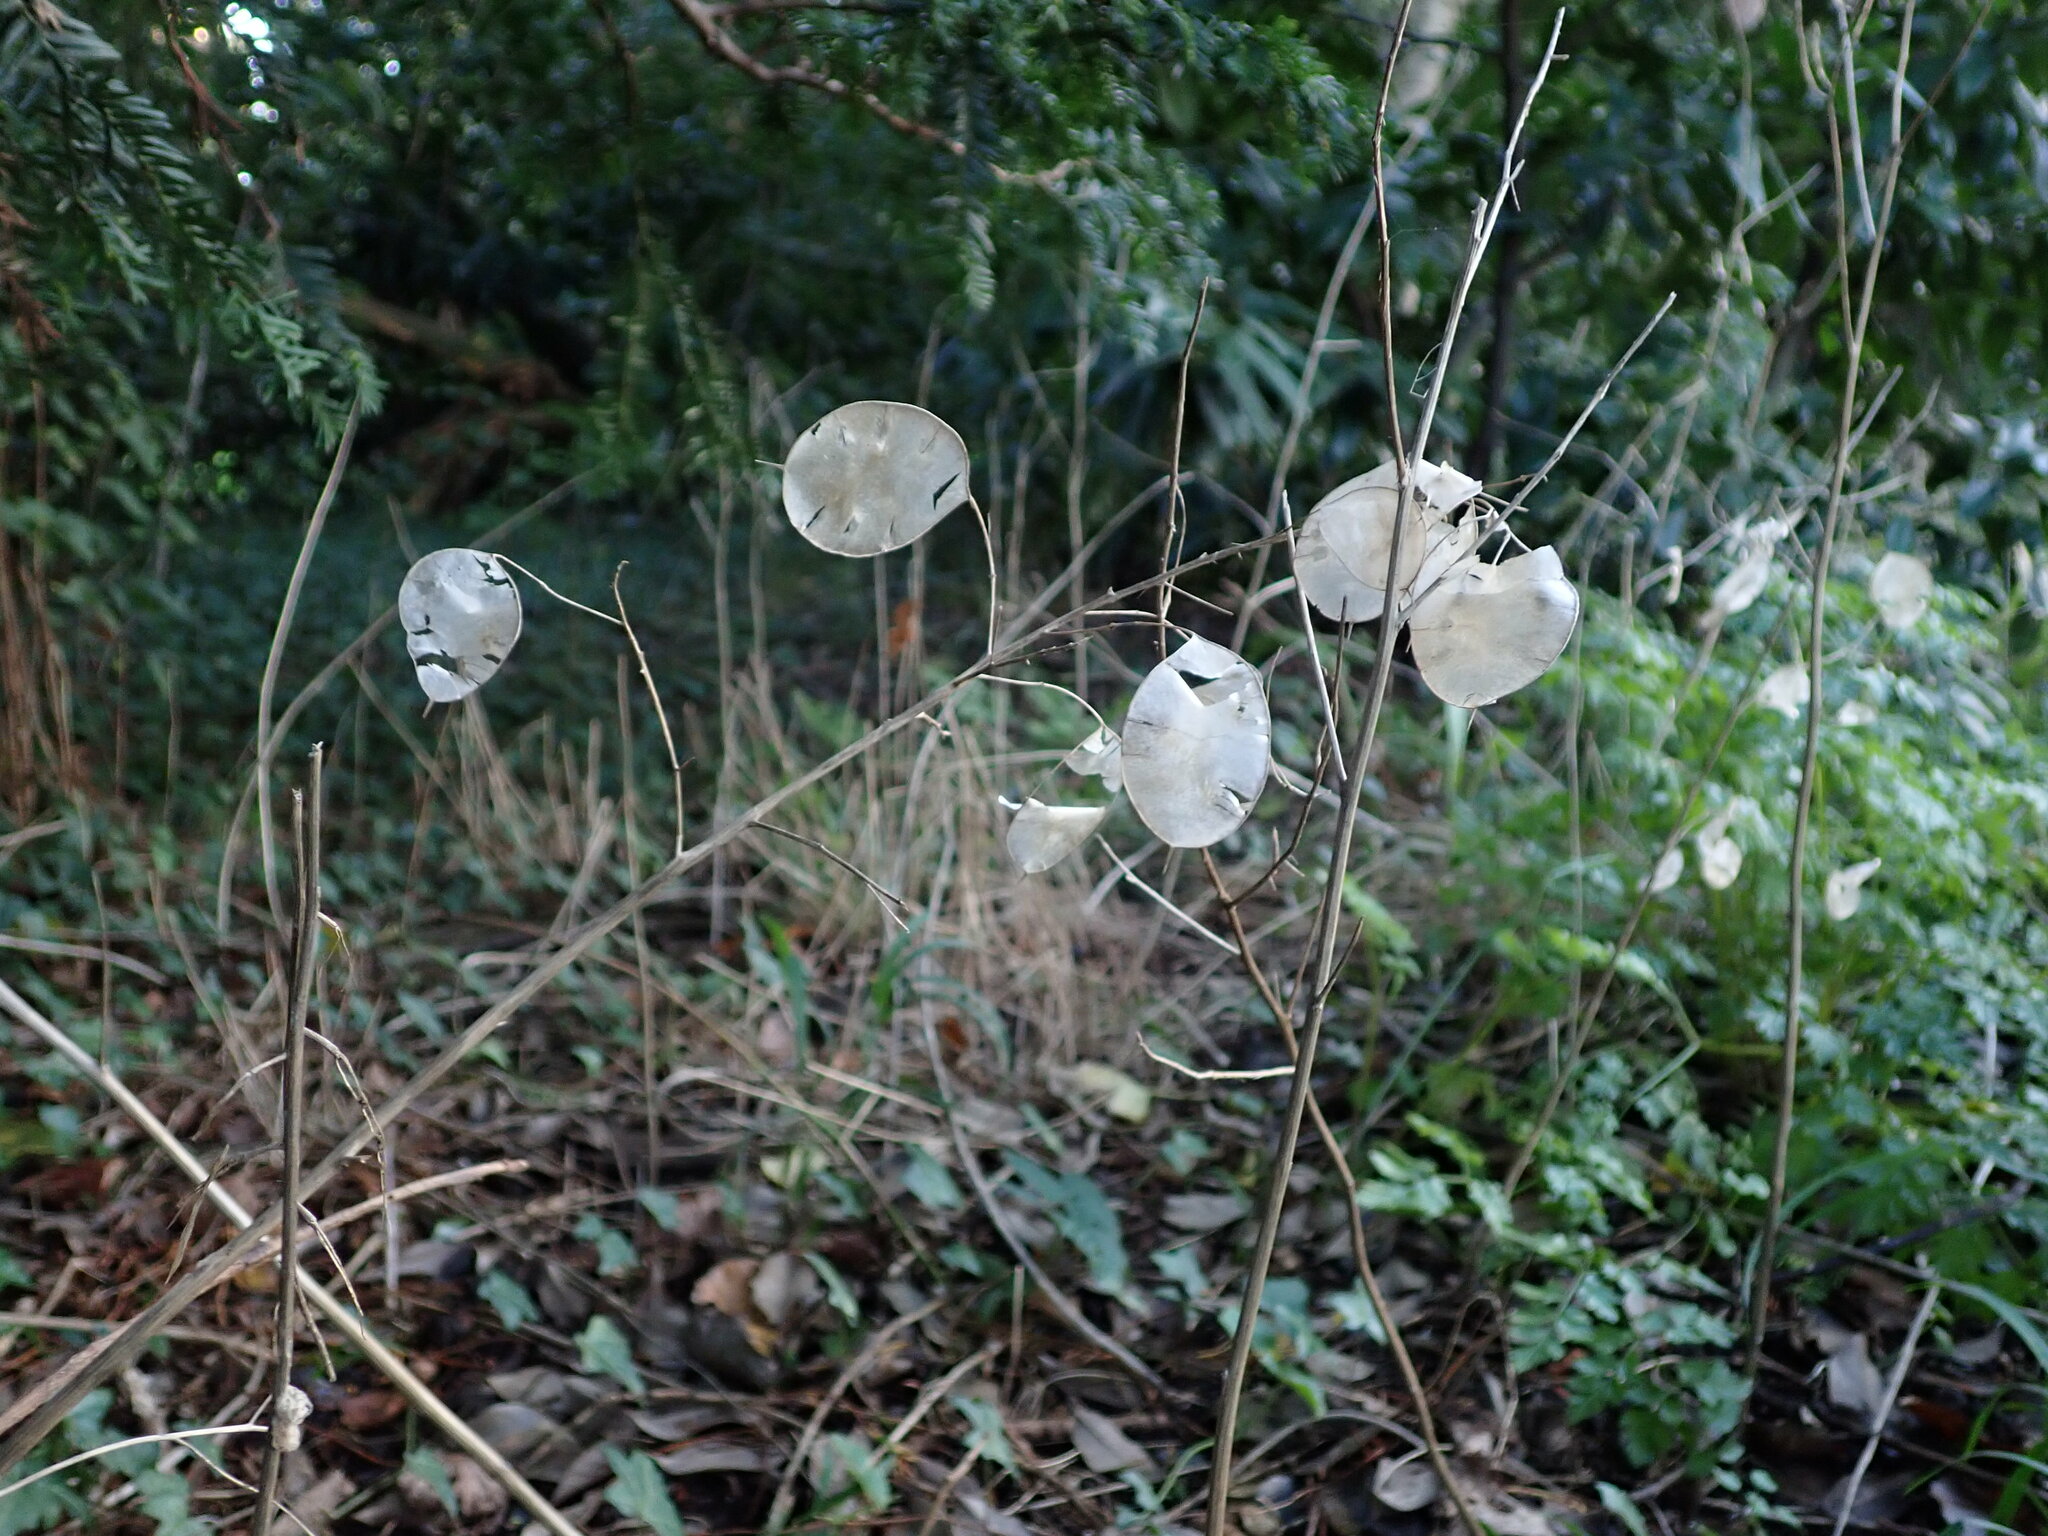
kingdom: Plantae
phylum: Tracheophyta
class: Magnoliopsida
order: Brassicales
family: Brassicaceae
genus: Lunaria
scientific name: Lunaria annua
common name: Honesty
